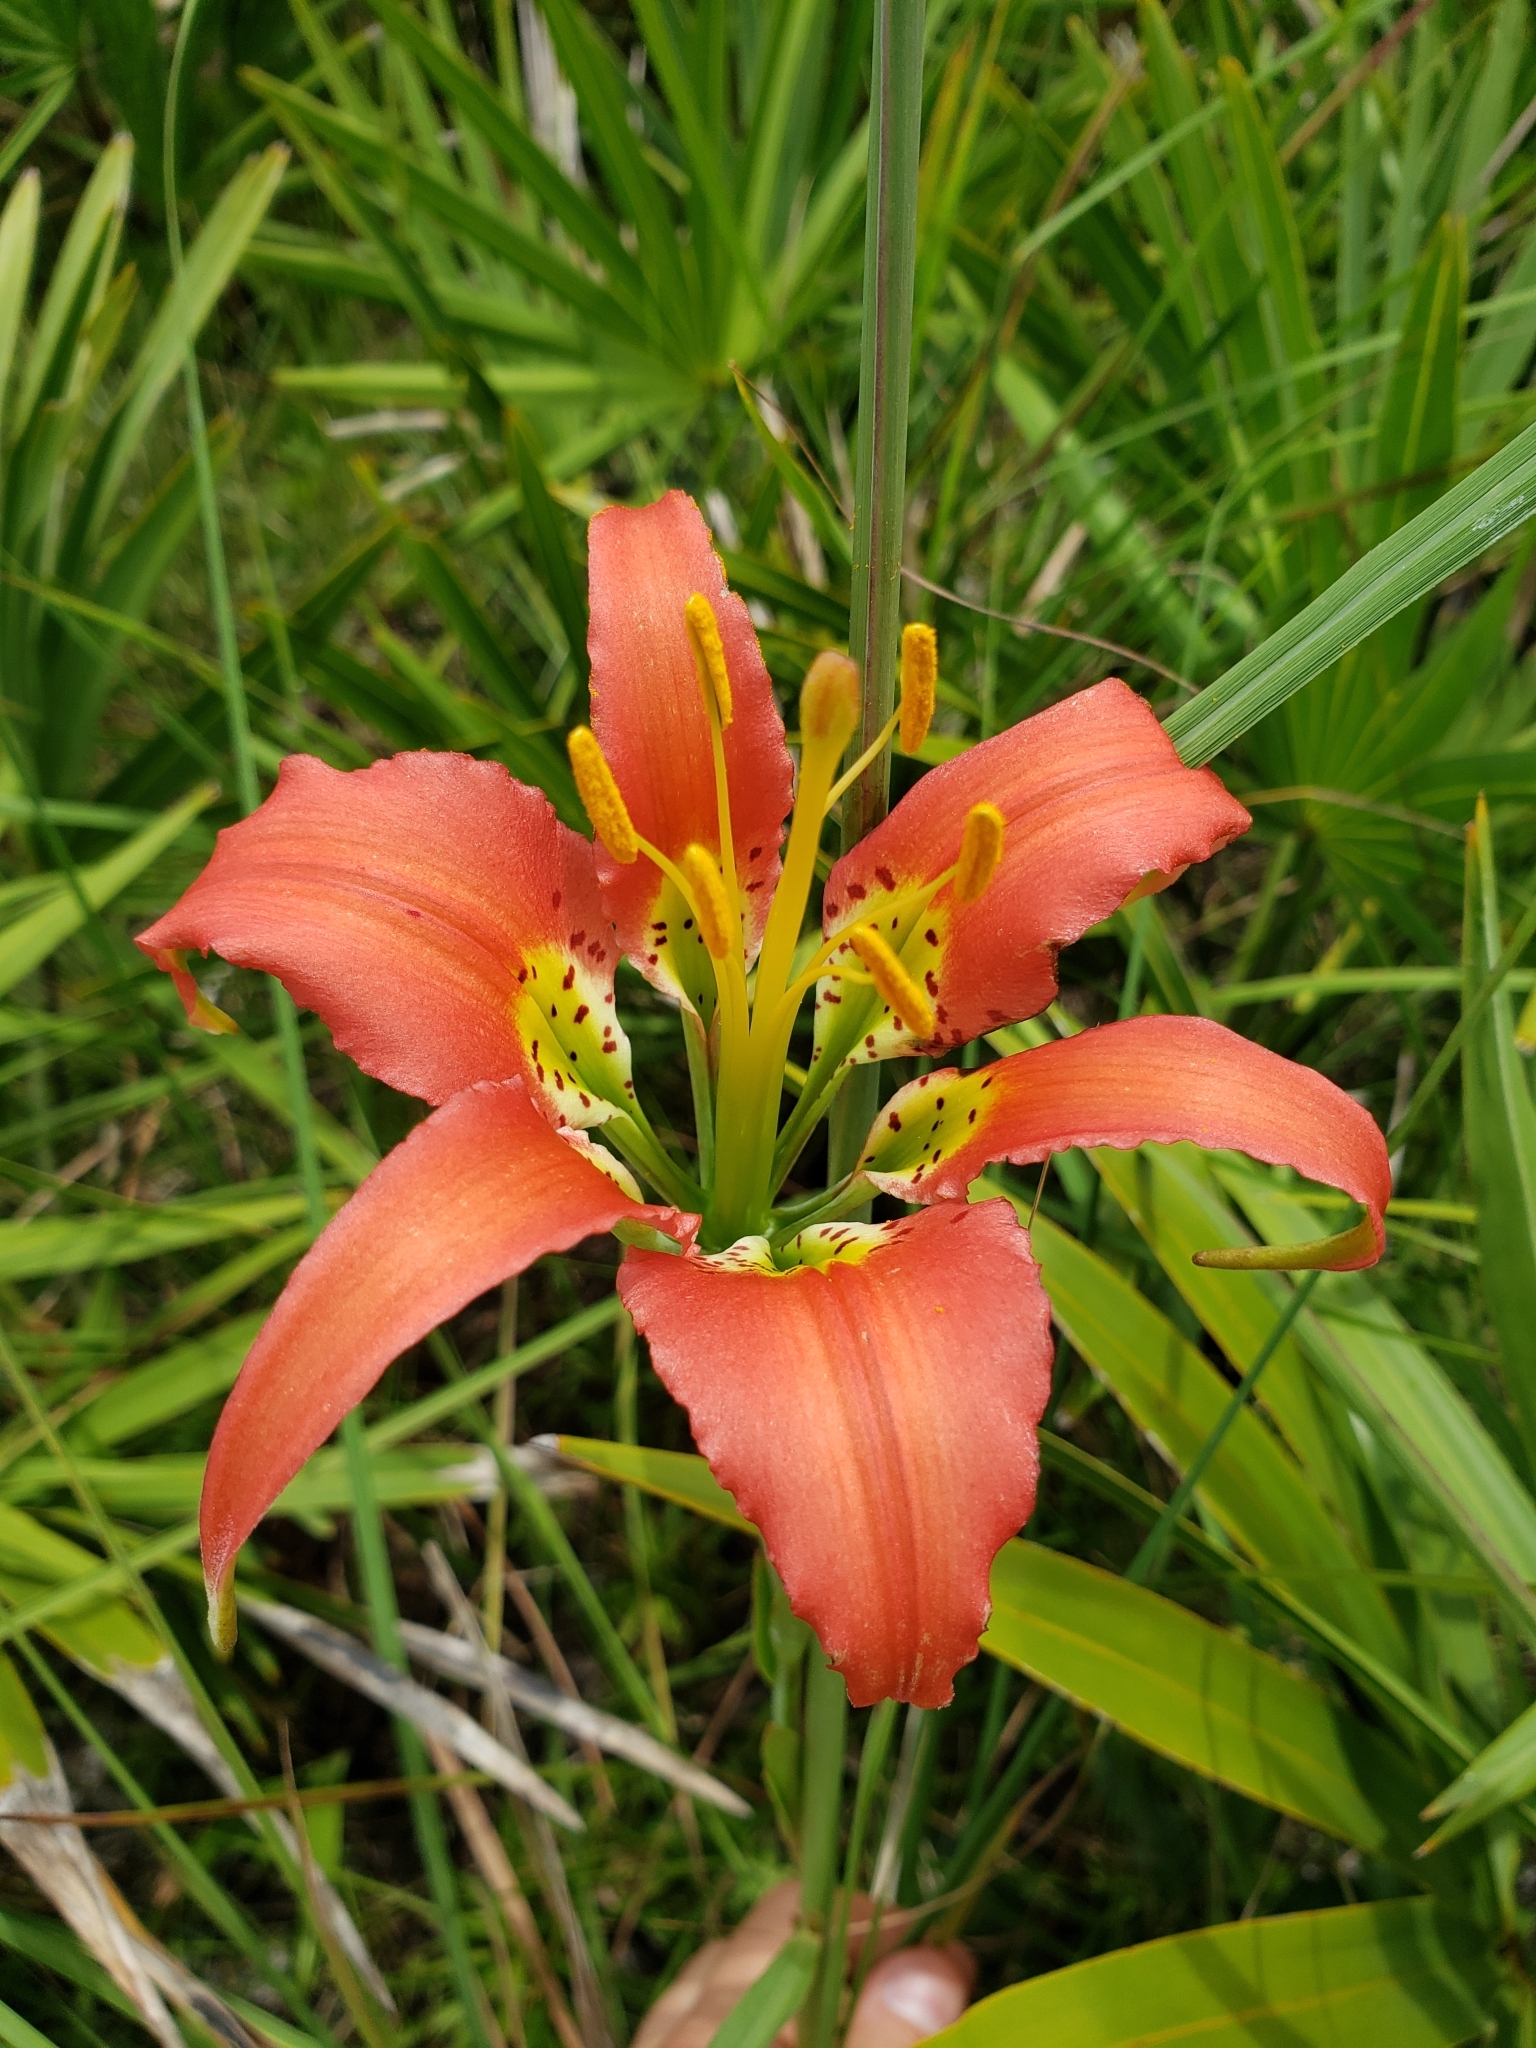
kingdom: Plantae
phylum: Tracheophyta
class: Liliopsida
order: Liliales
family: Liliaceae
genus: Lilium
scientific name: Lilium catesbaei
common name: Catesby's lily
